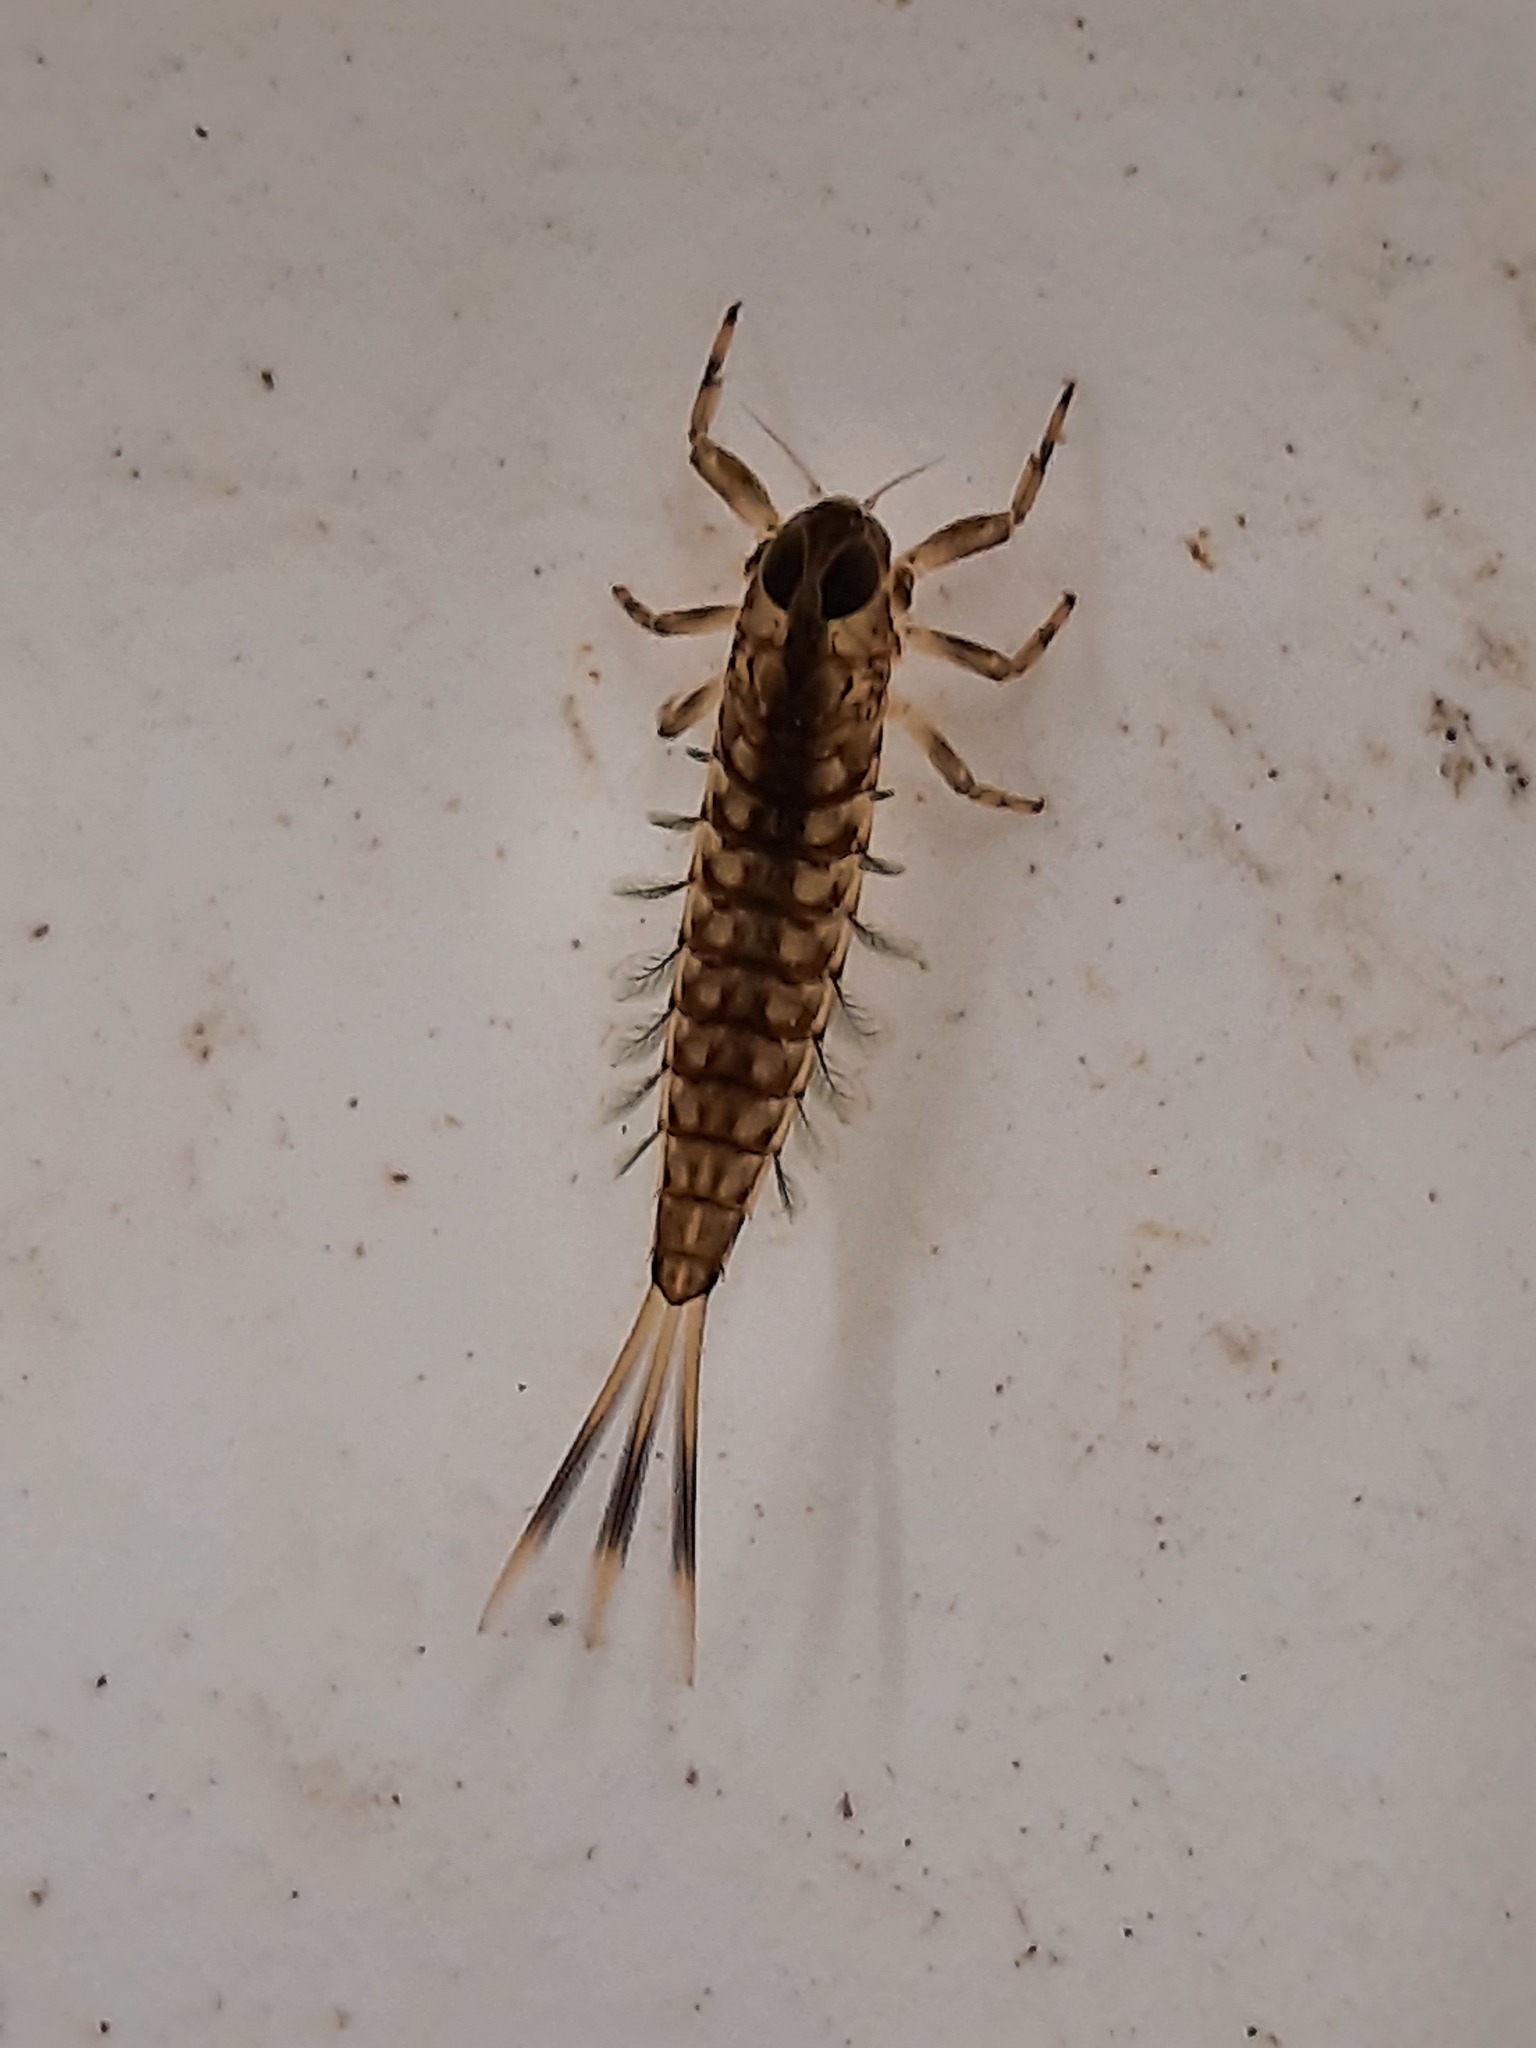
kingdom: Animalia
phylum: Arthropoda
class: Insecta
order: Ephemeroptera
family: Nesameletidae
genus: Nesameletus
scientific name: Nesameletus ornatus
